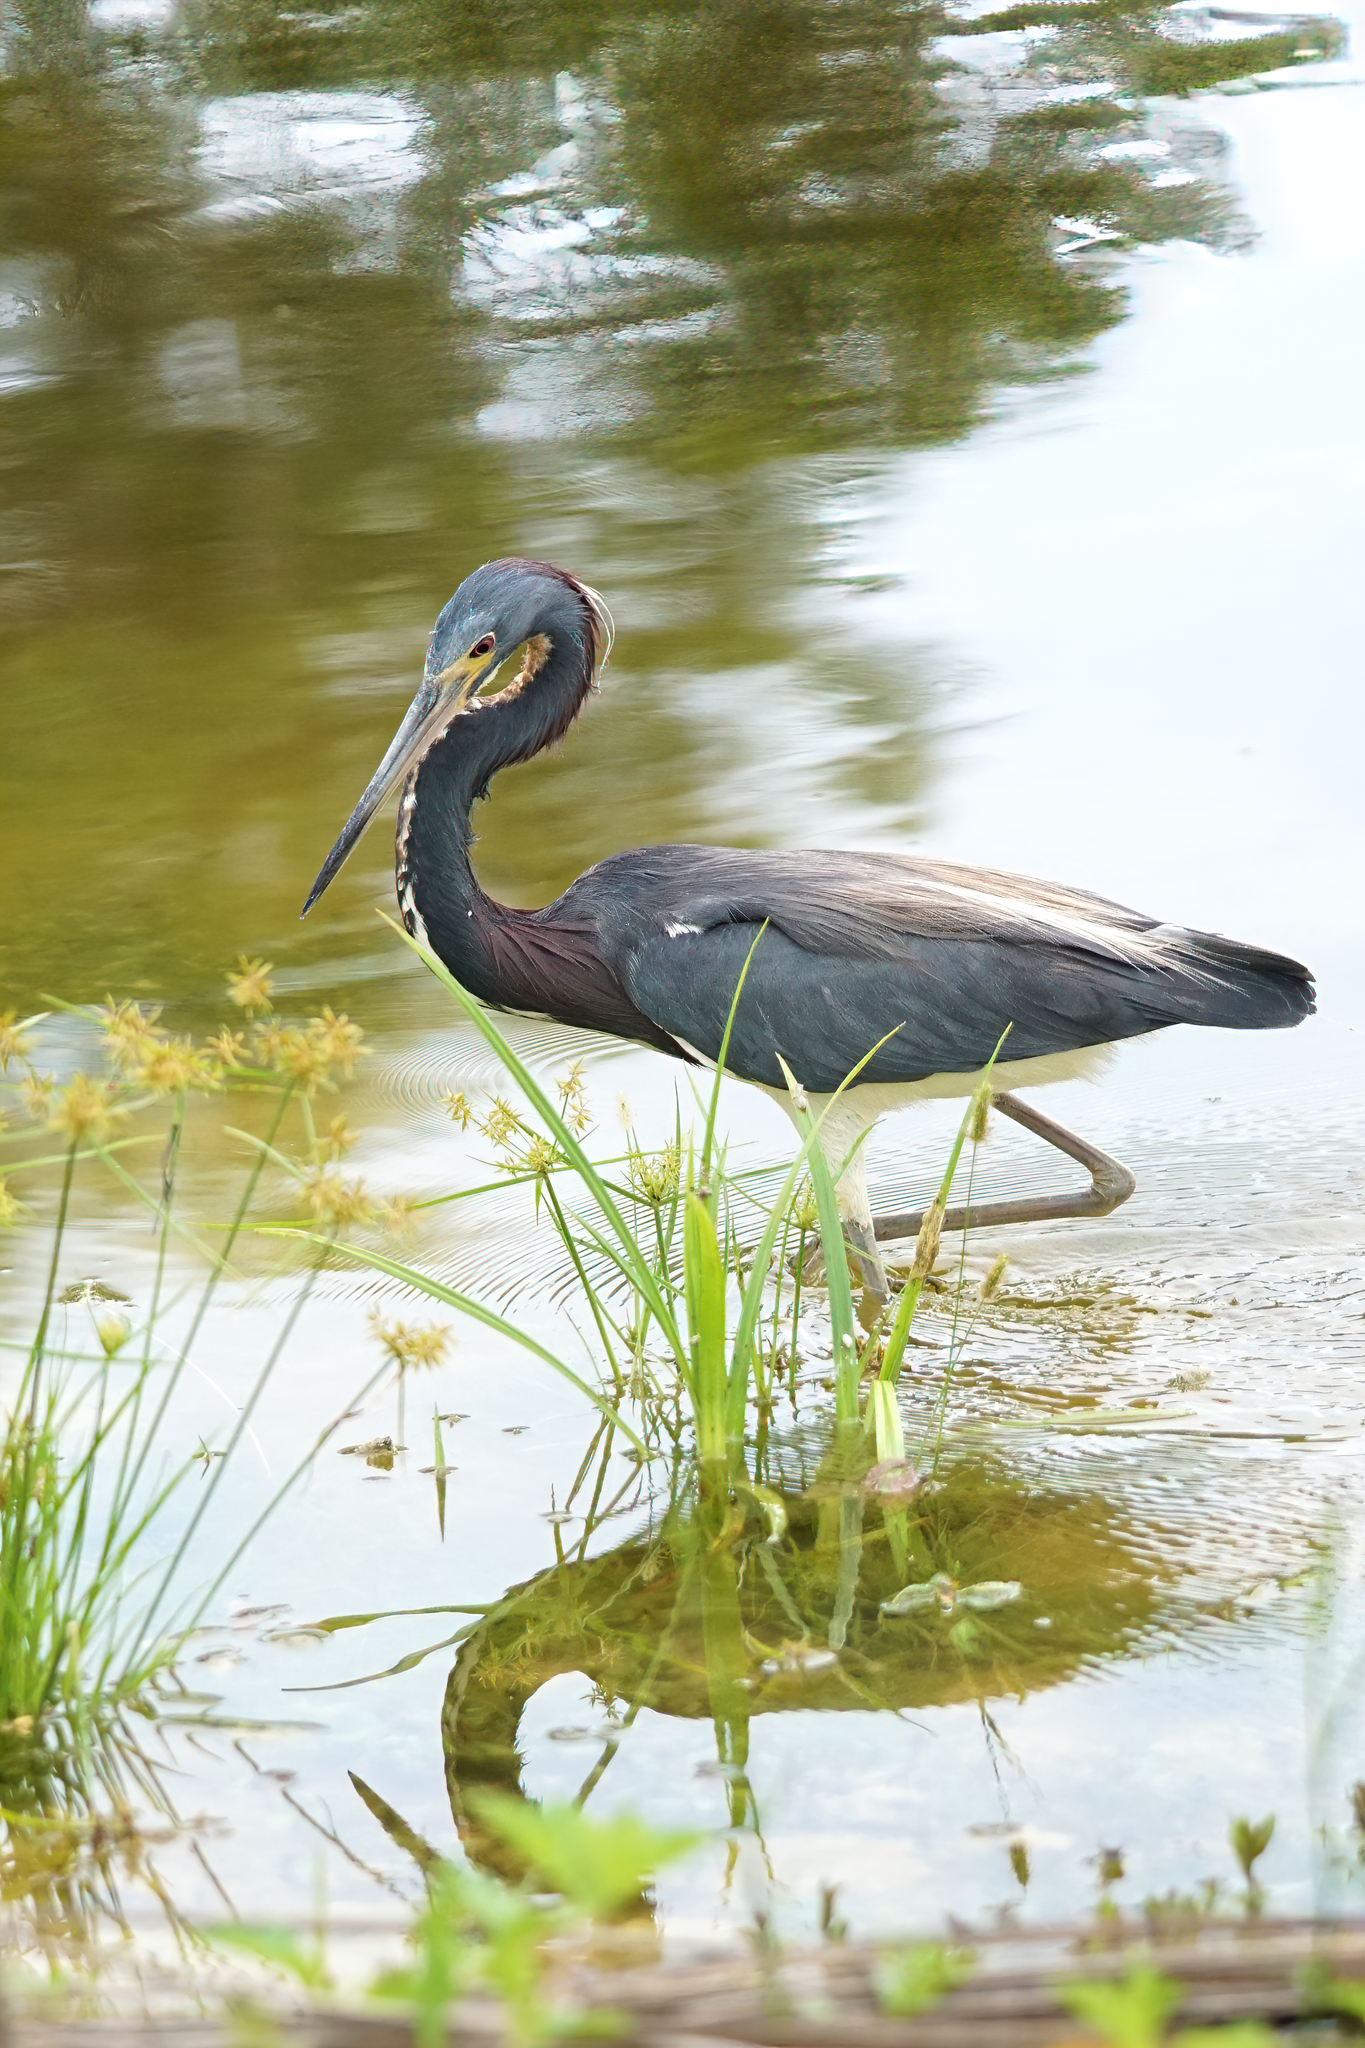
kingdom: Animalia
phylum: Chordata
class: Aves
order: Pelecaniformes
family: Ardeidae
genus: Egretta
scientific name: Egretta tricolor
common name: Tricolored heron
